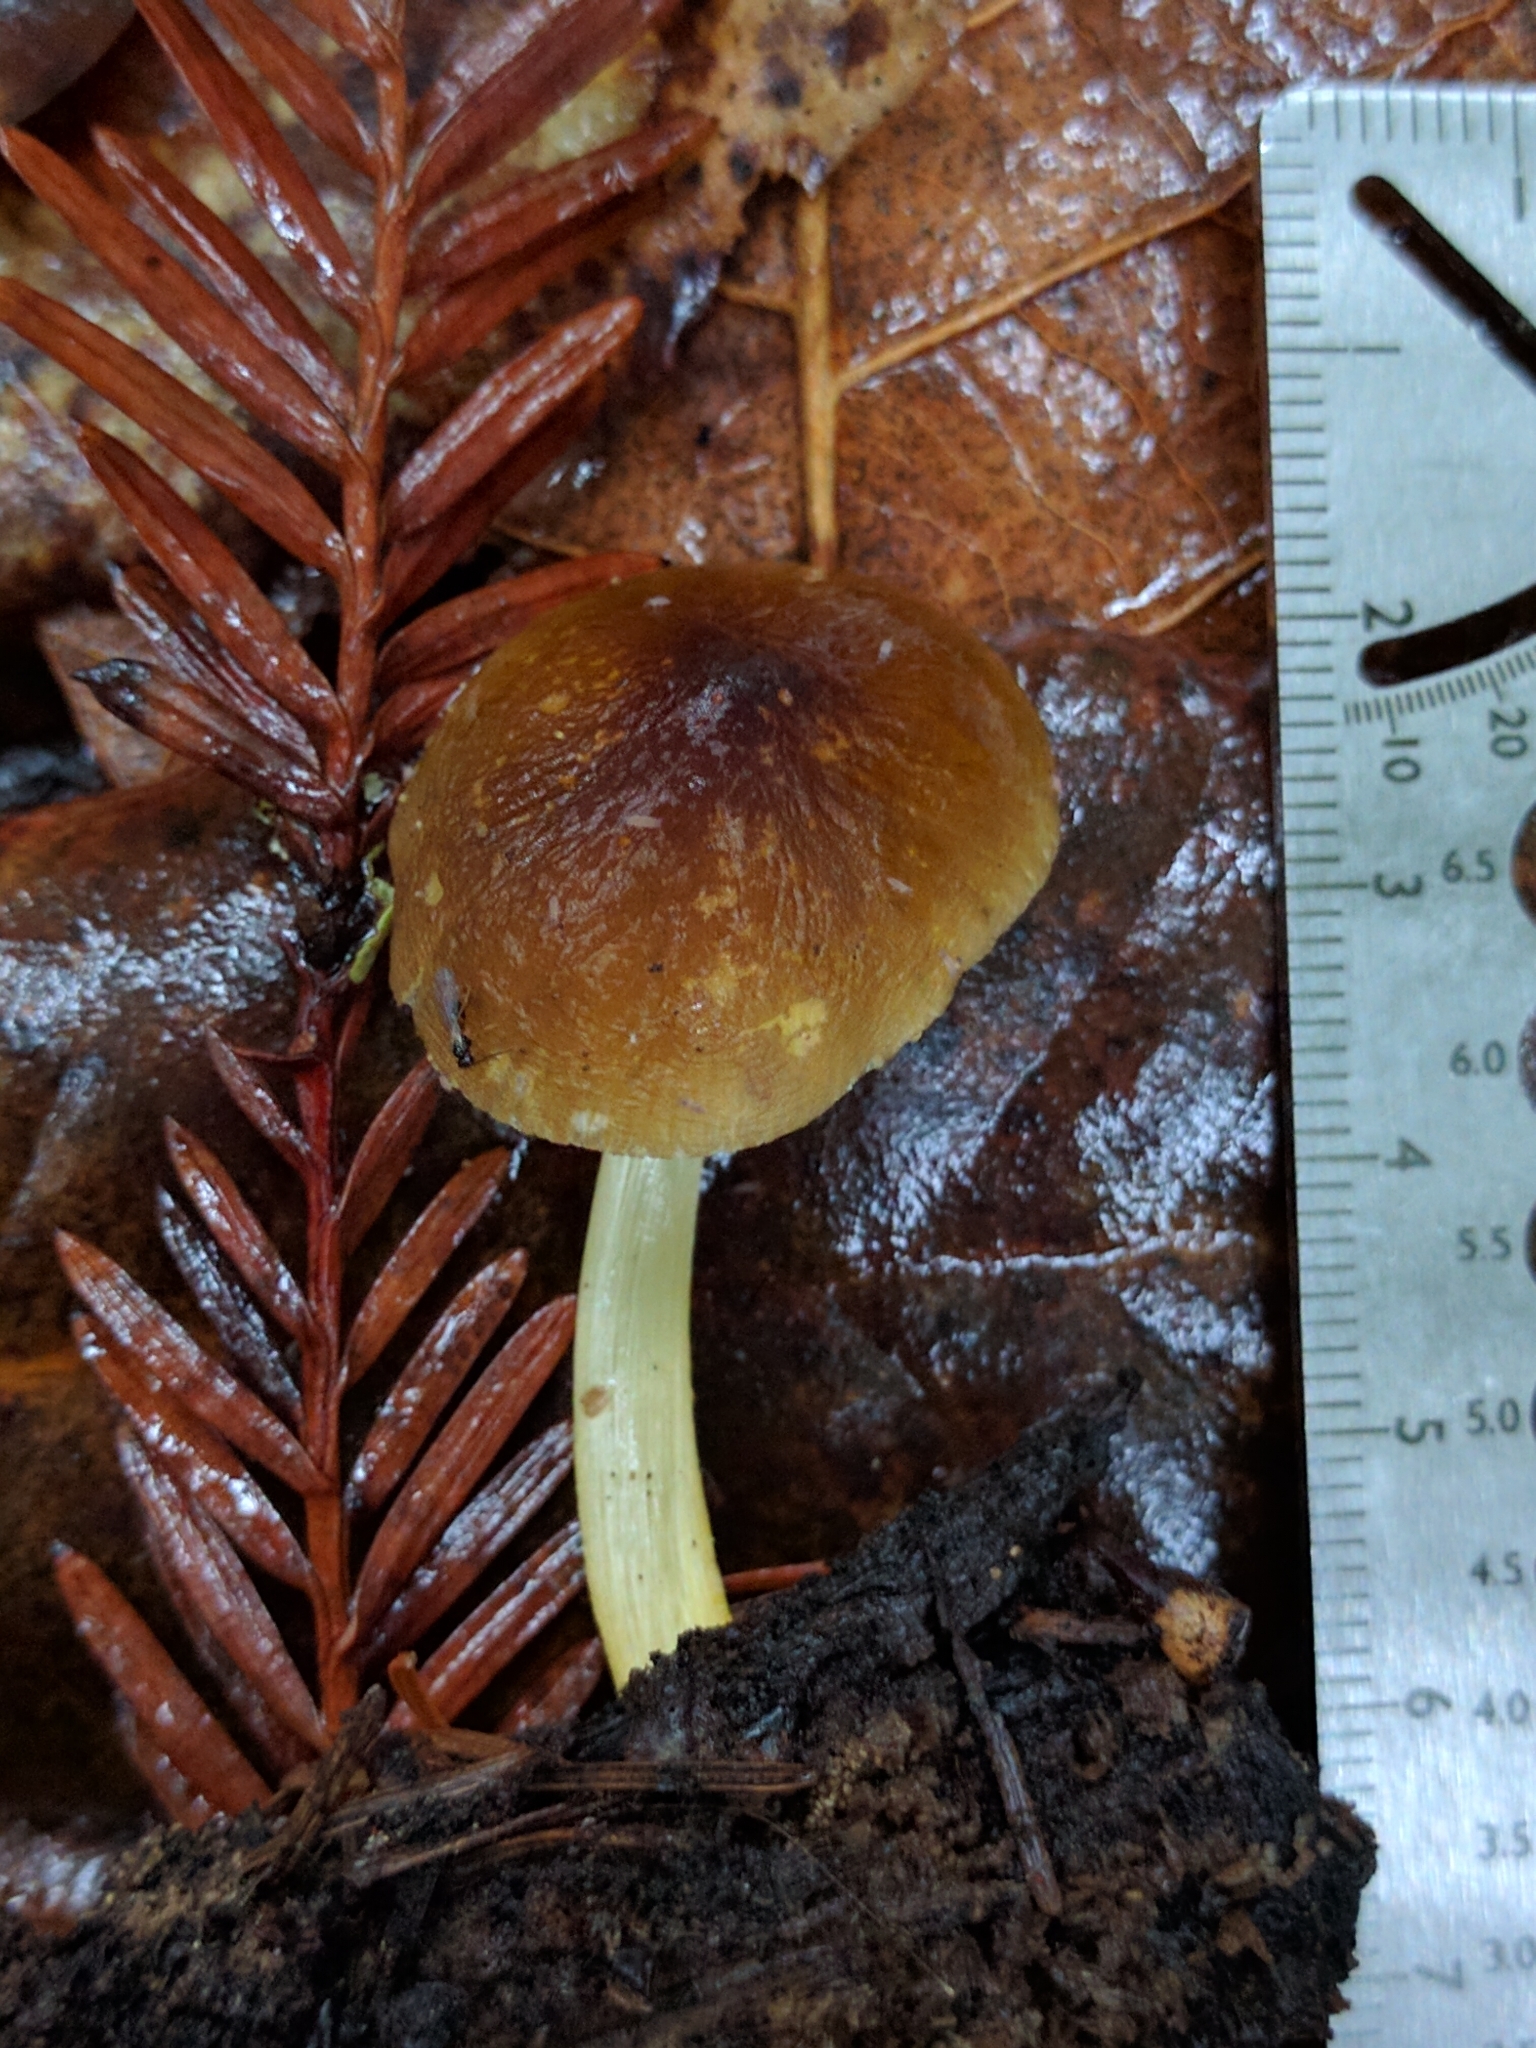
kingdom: Fungi
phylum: Basidiomycota
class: Agaricomycetes
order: Agaricales
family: Pluteaceae
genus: Pluteus
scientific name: Pluteus romellii
